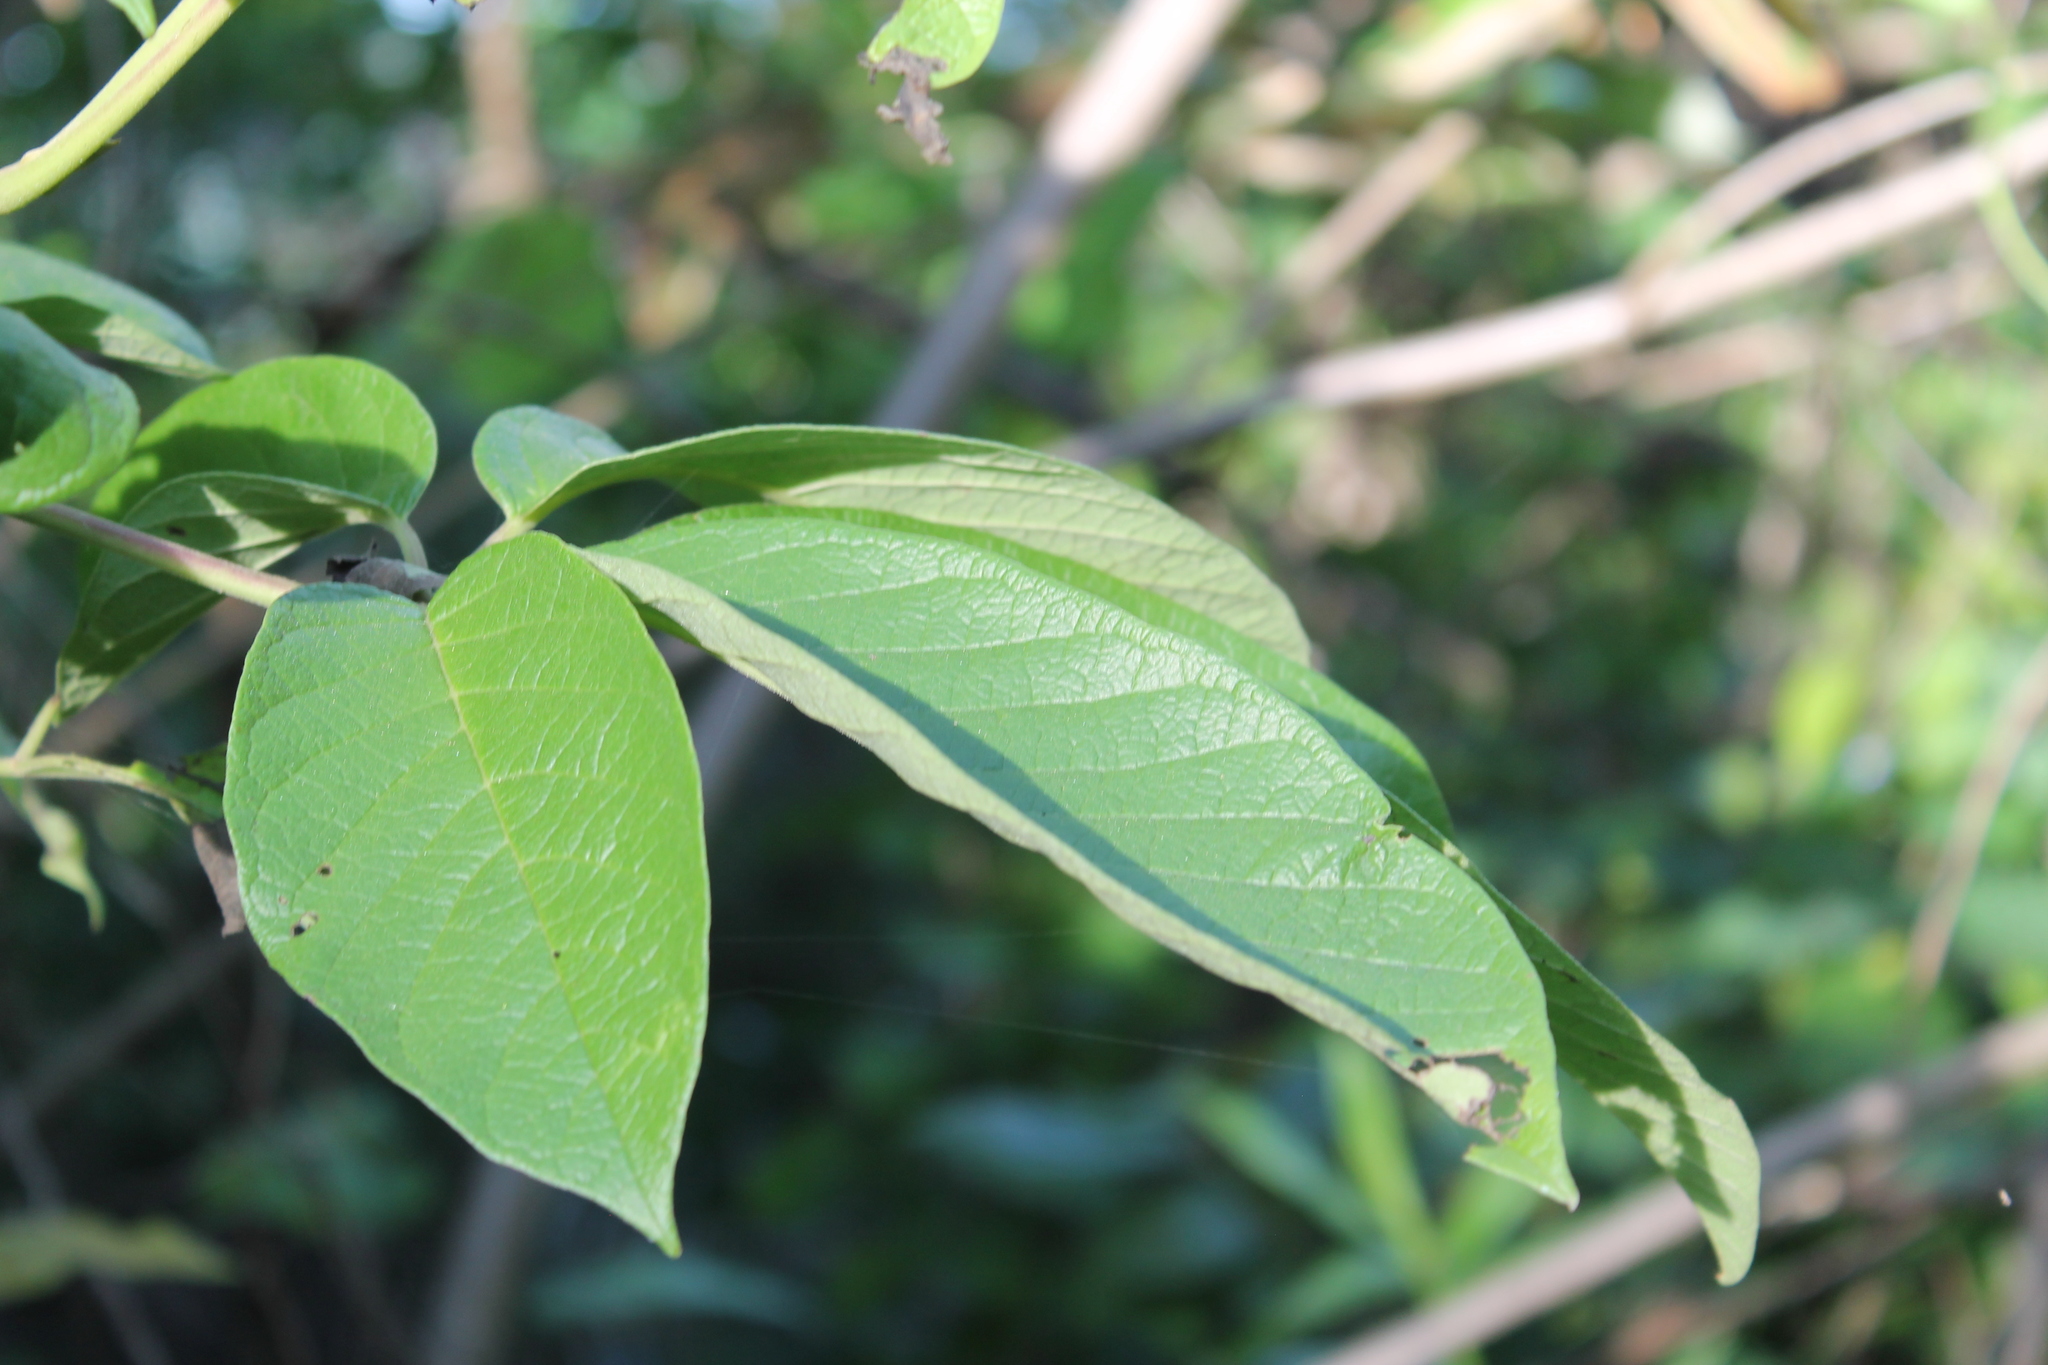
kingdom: Plantae
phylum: Tracheophyta
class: Magnoliopsida
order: Lamiales
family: Lamiaceae
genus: Vitex
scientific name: Vitex pyramidata
